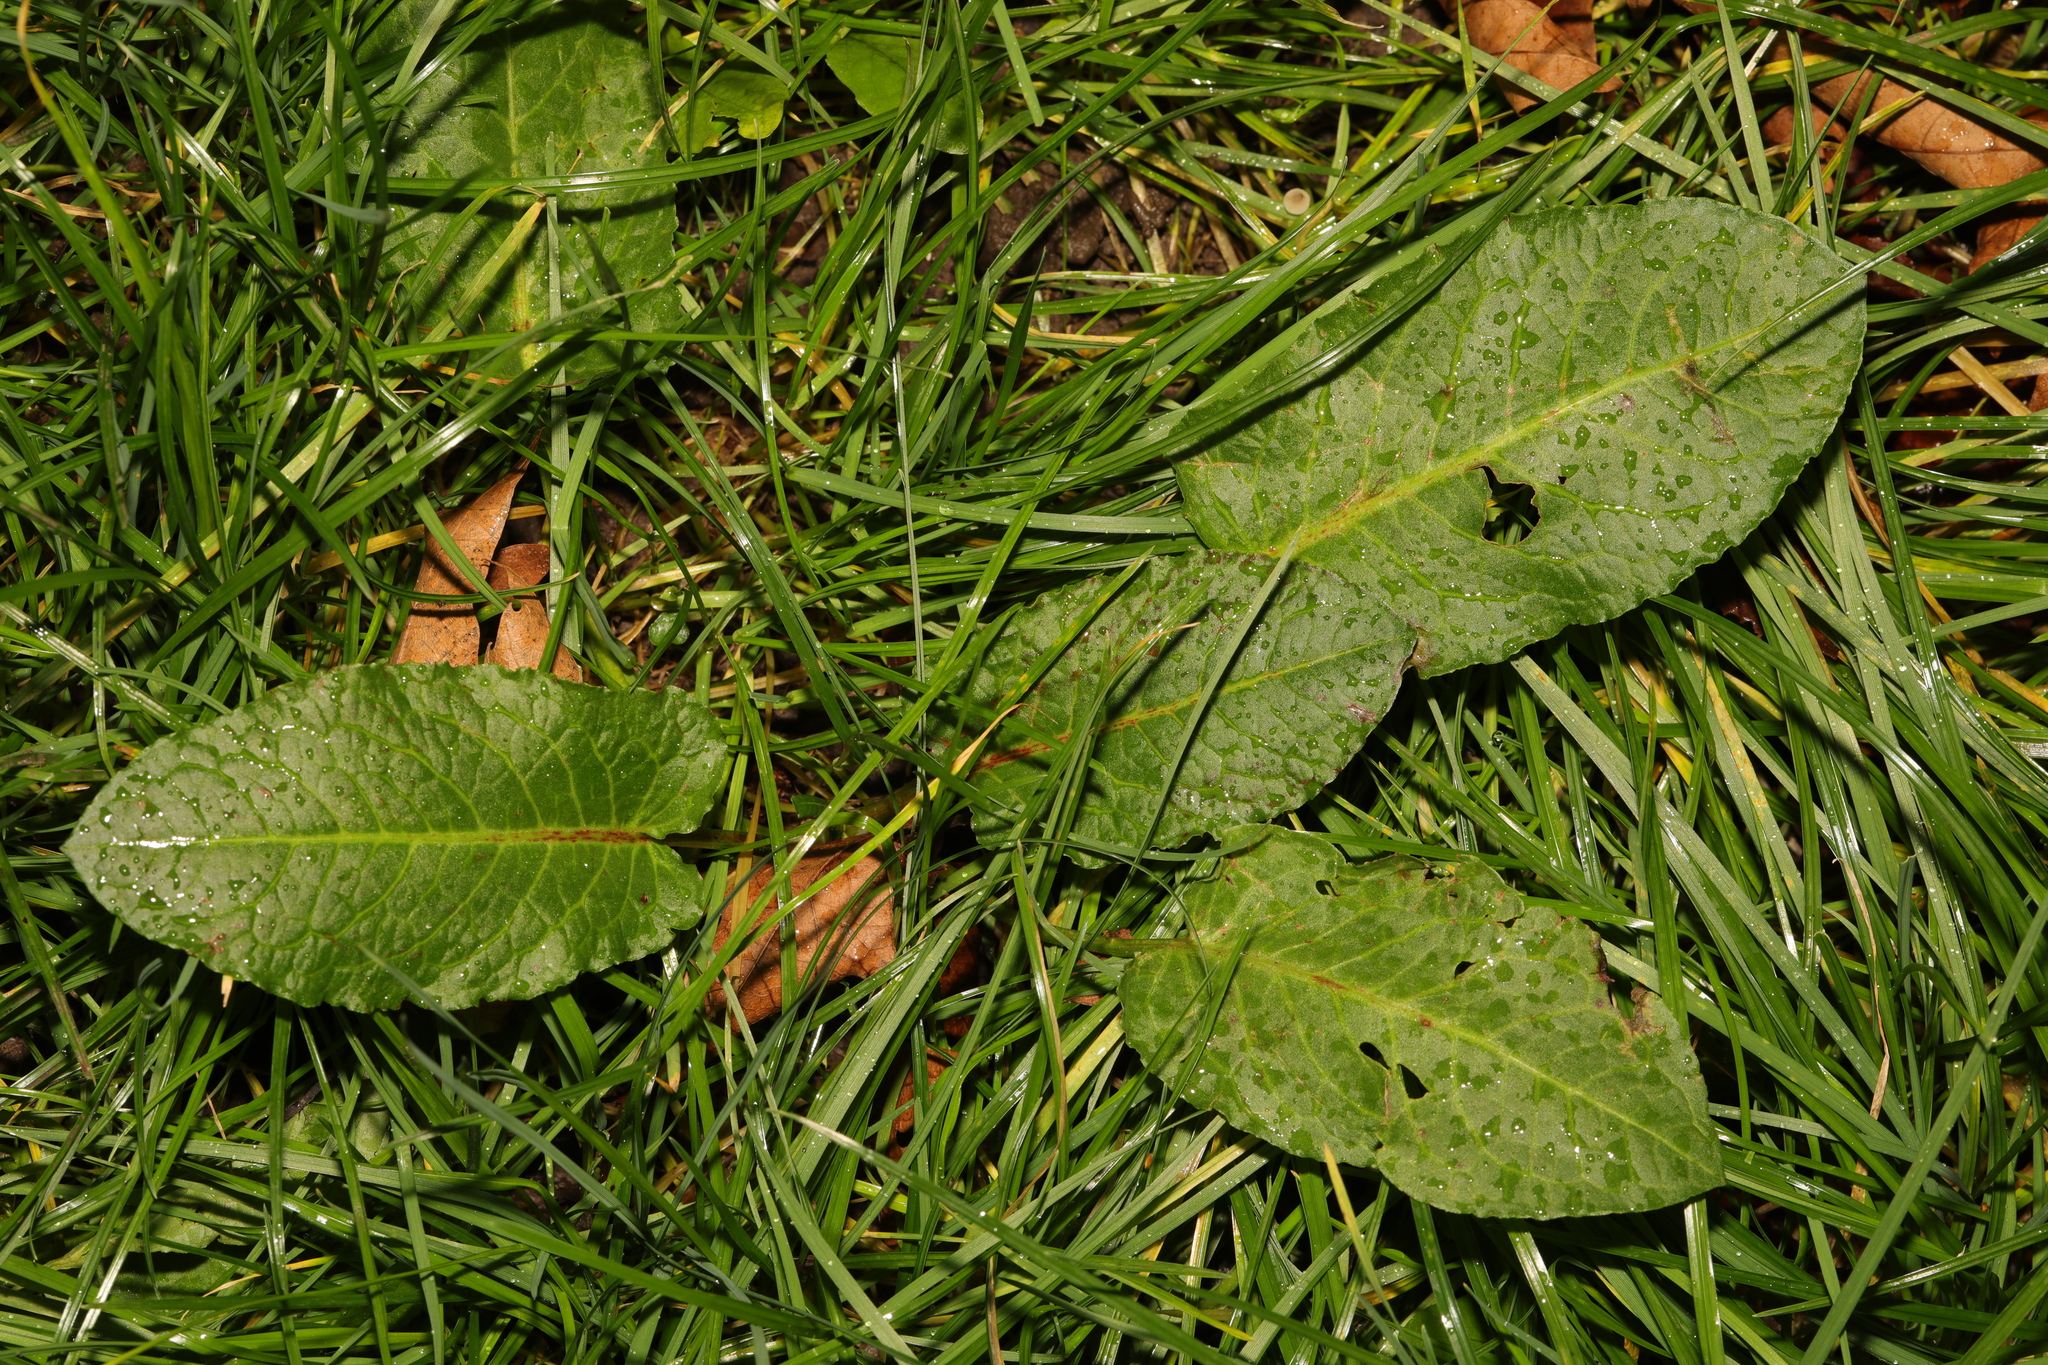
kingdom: Plantae
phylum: Tracheophyta
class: Magnoliopsida
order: Caryophyllales
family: Polygonaceae
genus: Rumex
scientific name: Rumex obtusifolius
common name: Bitter dock
